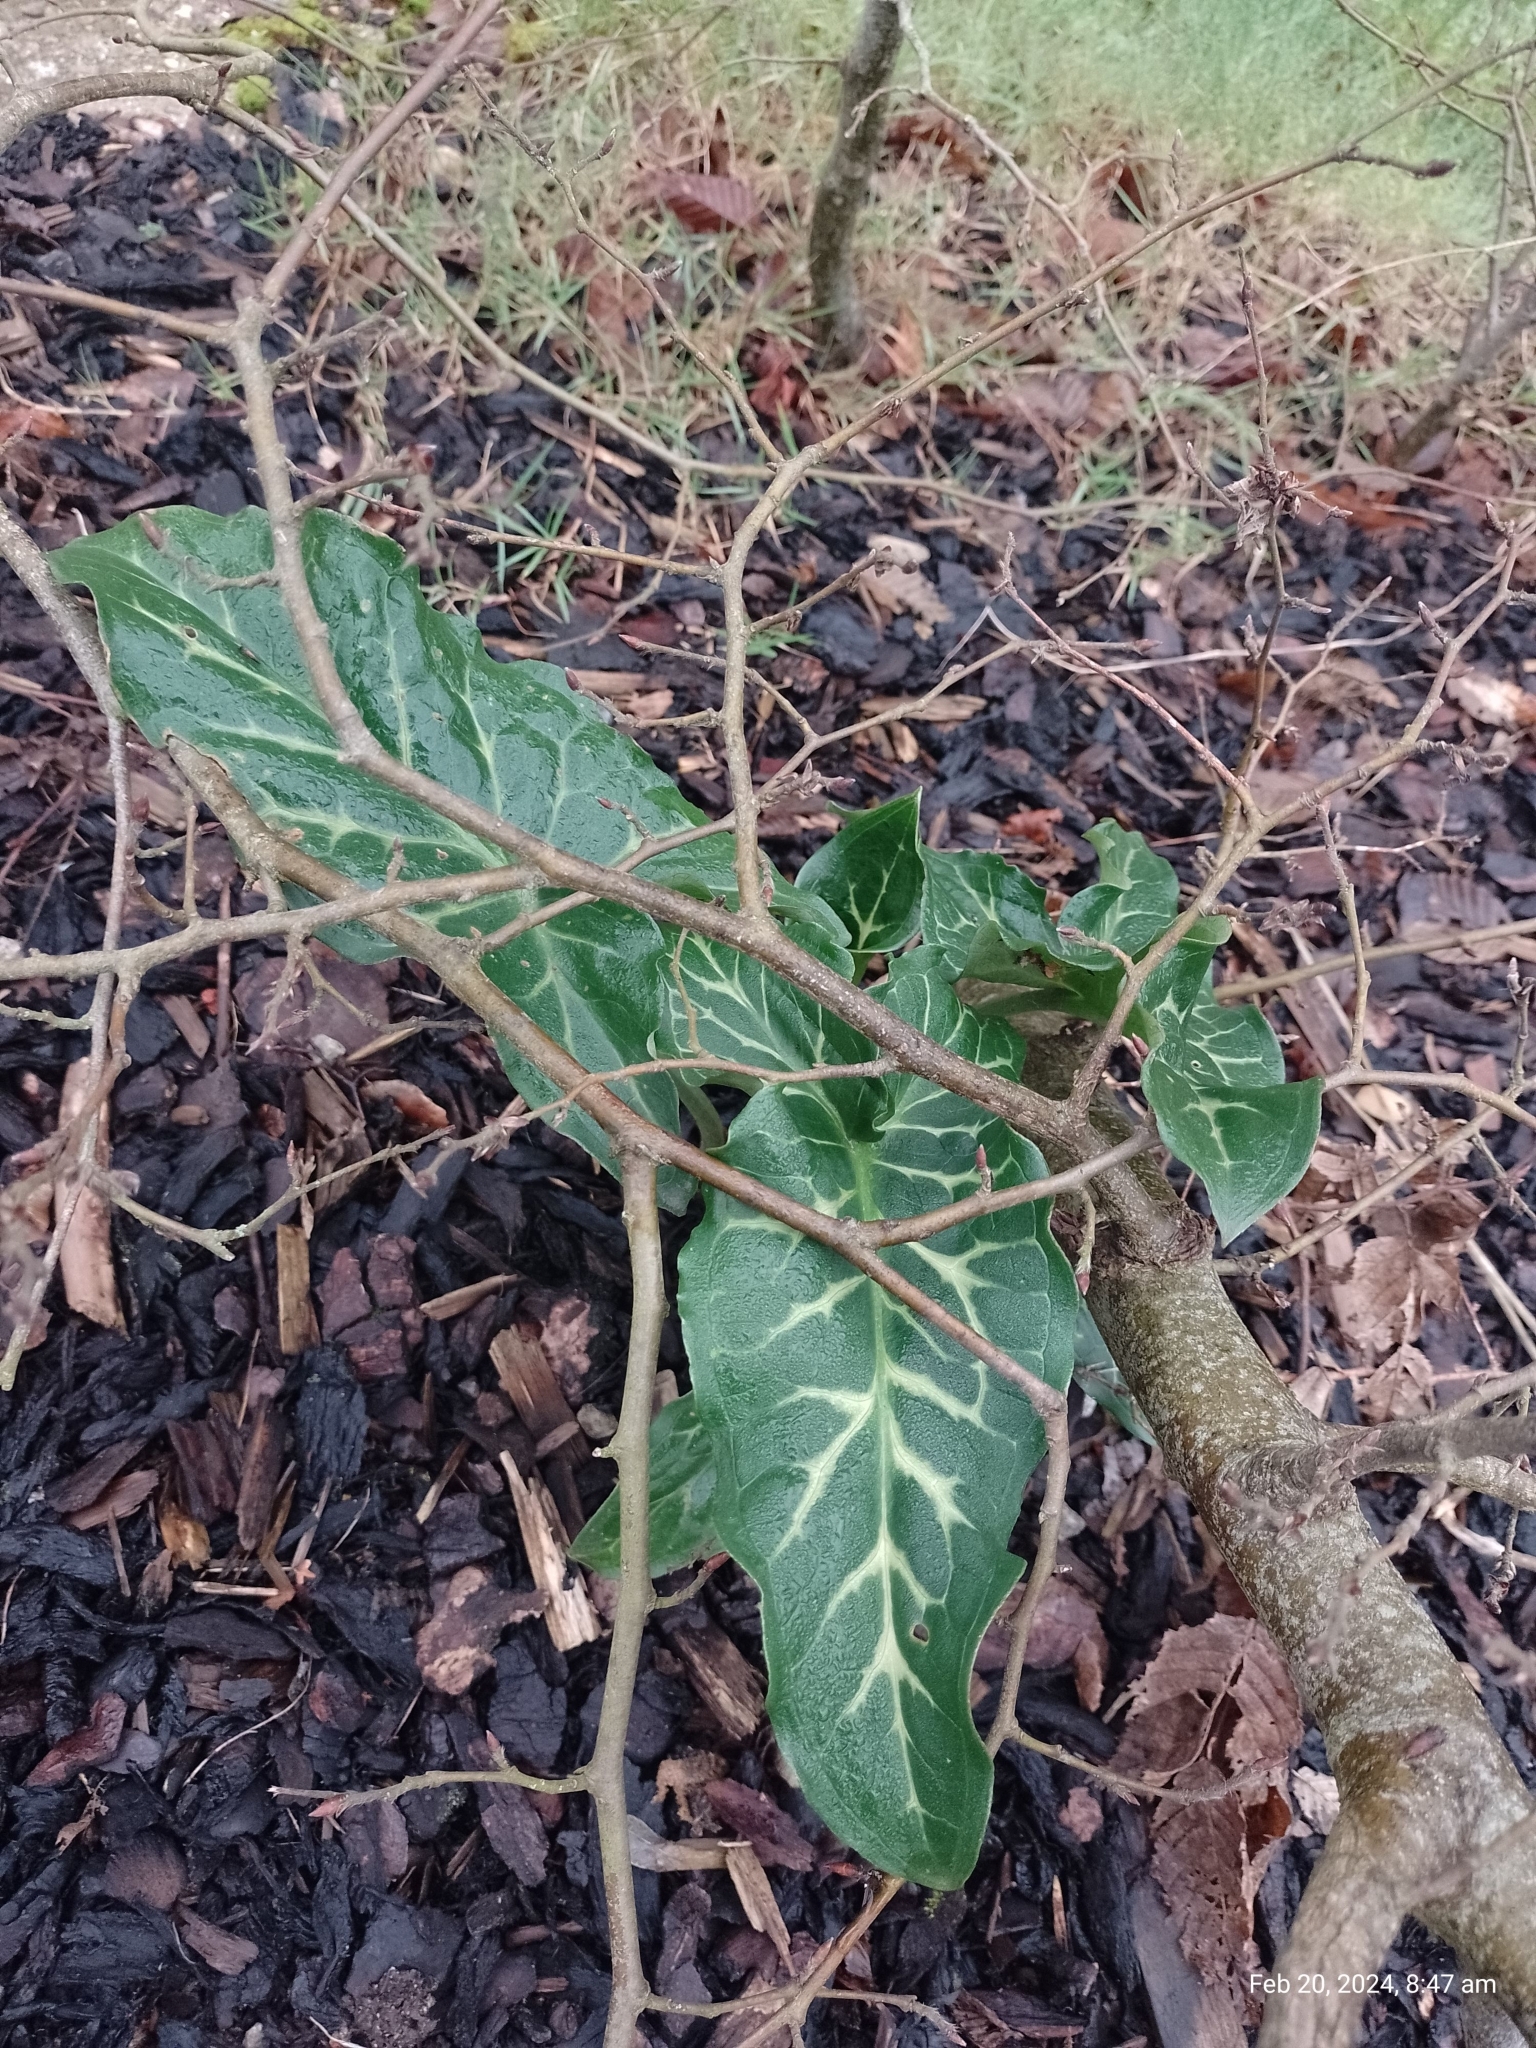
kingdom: Plantae
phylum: Tracheophyta
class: Liliopsida
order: Alismatales
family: Araceae
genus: Arum
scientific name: Arum italicum
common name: Italian lords-and-ladies
